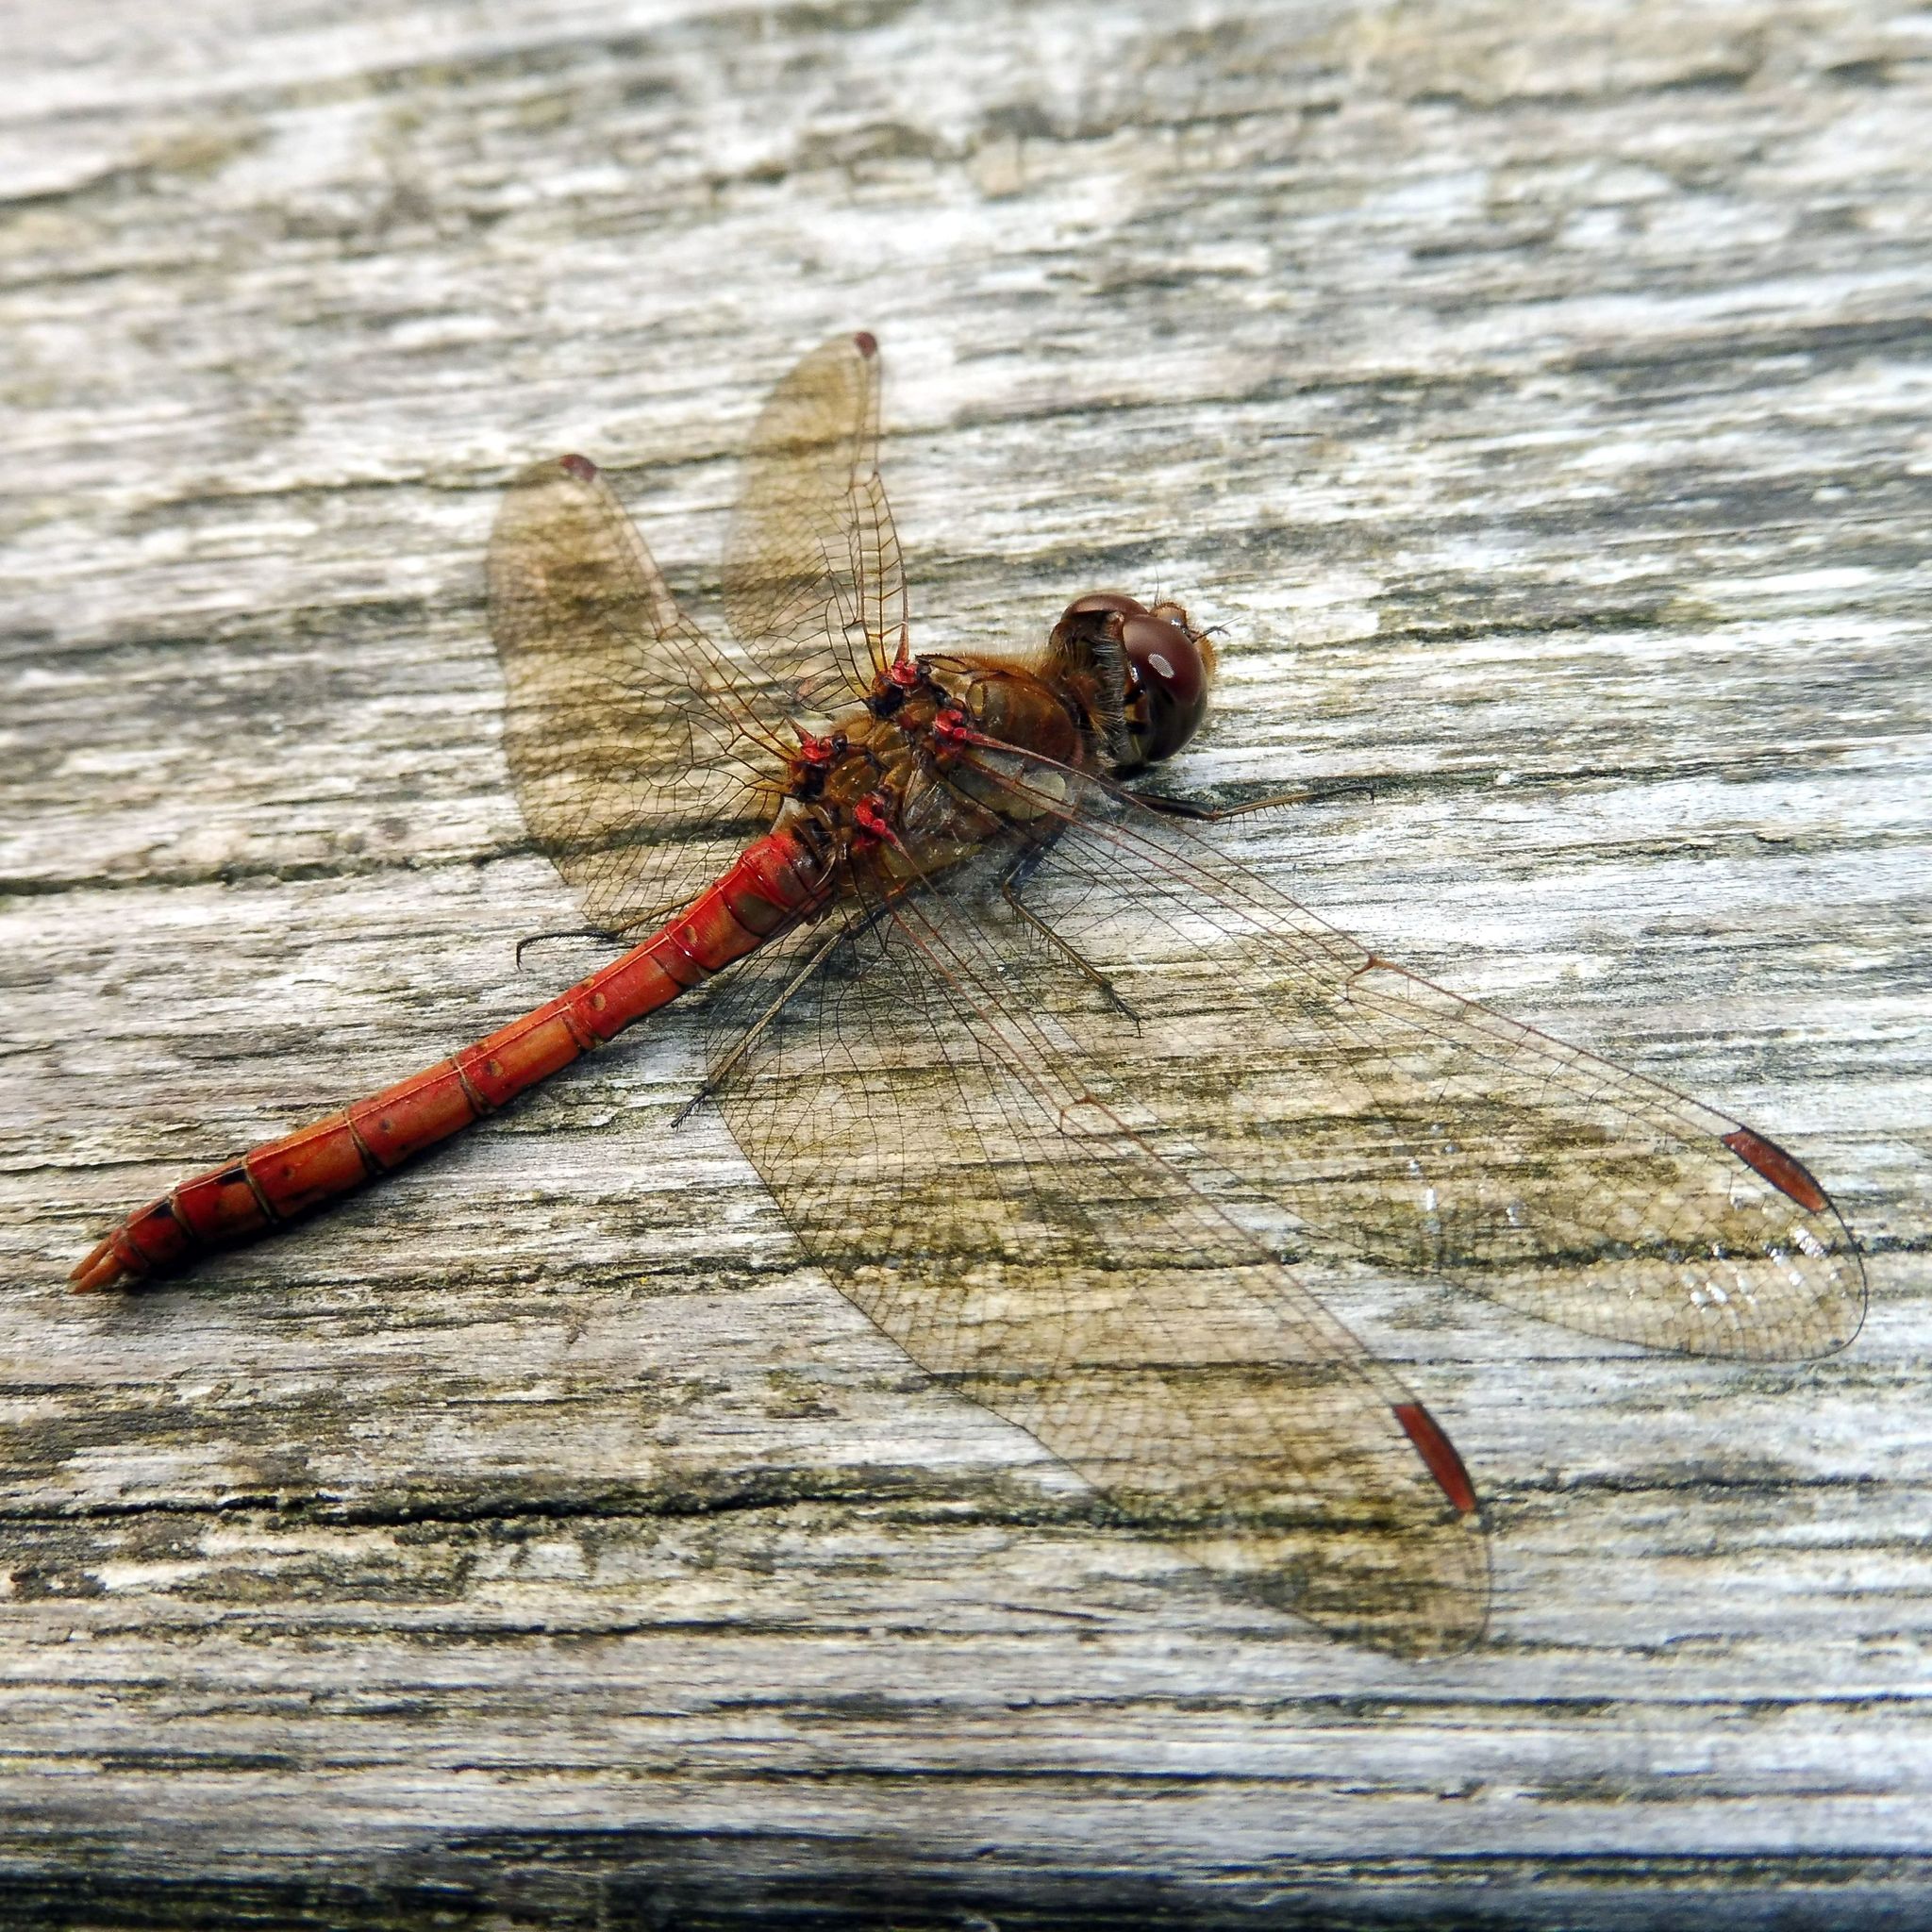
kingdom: Animalia
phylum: Arthropoda
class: Insecta
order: Odonata
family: Libellulidae
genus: Sympetrum
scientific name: Sympetrum striolatum
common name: Common darter
